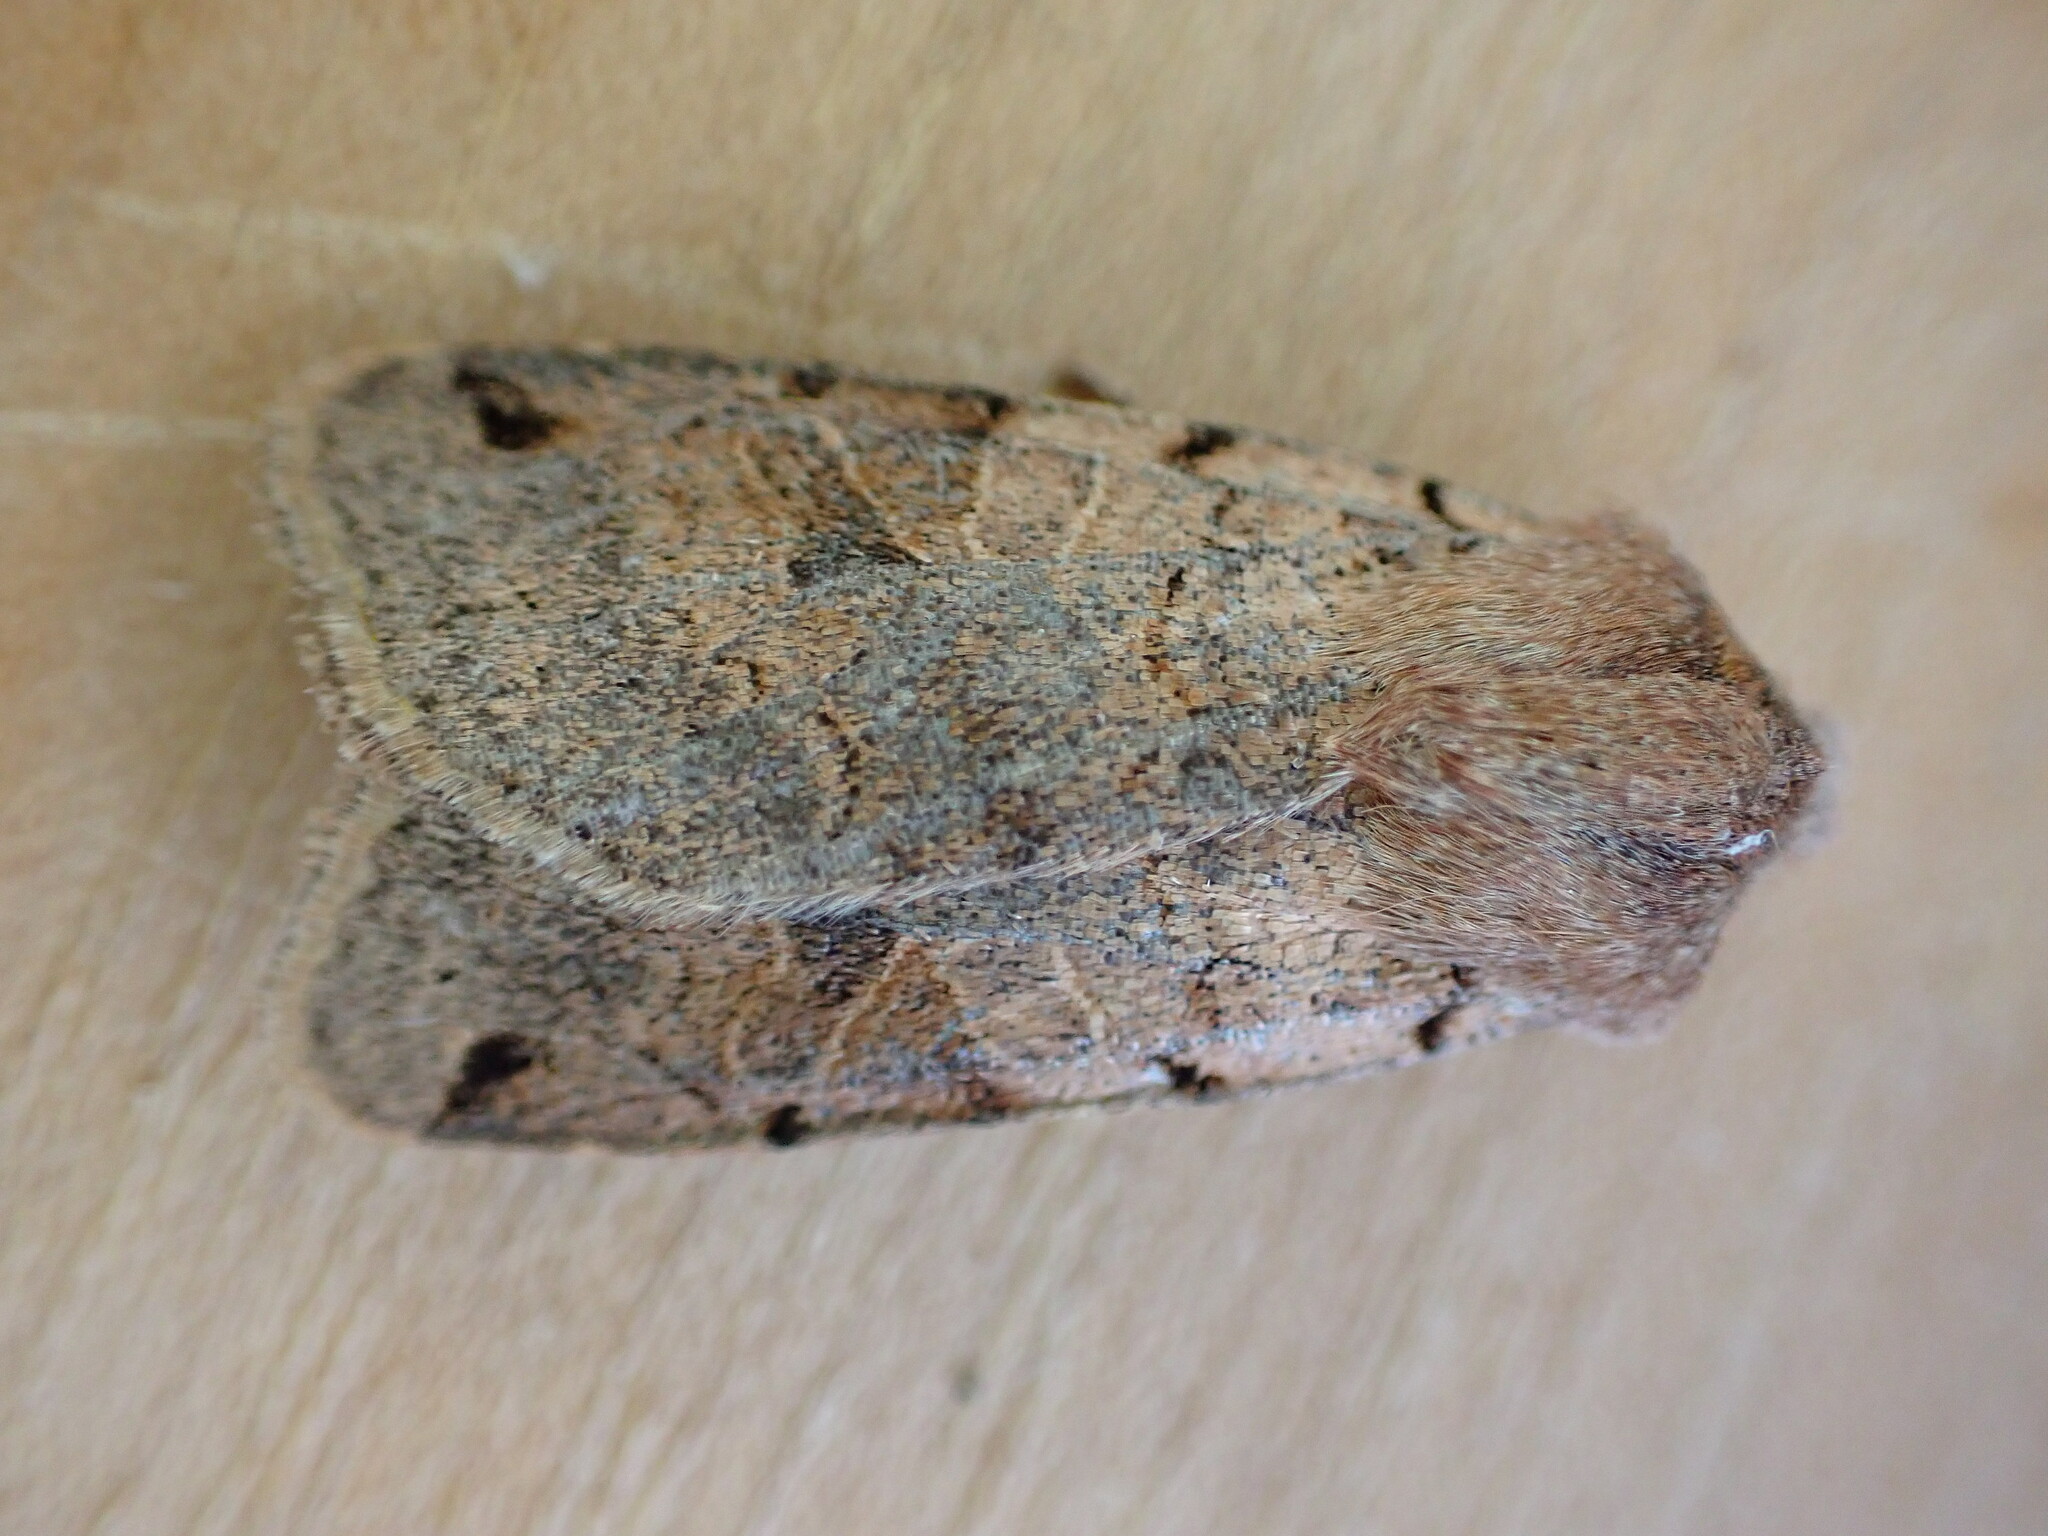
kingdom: Animalia
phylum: Arthropoda
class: Insecta
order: Lepidoptera
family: Noctuidae
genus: Agrochola
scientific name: Agrochola litura
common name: Brown-spot pinion
